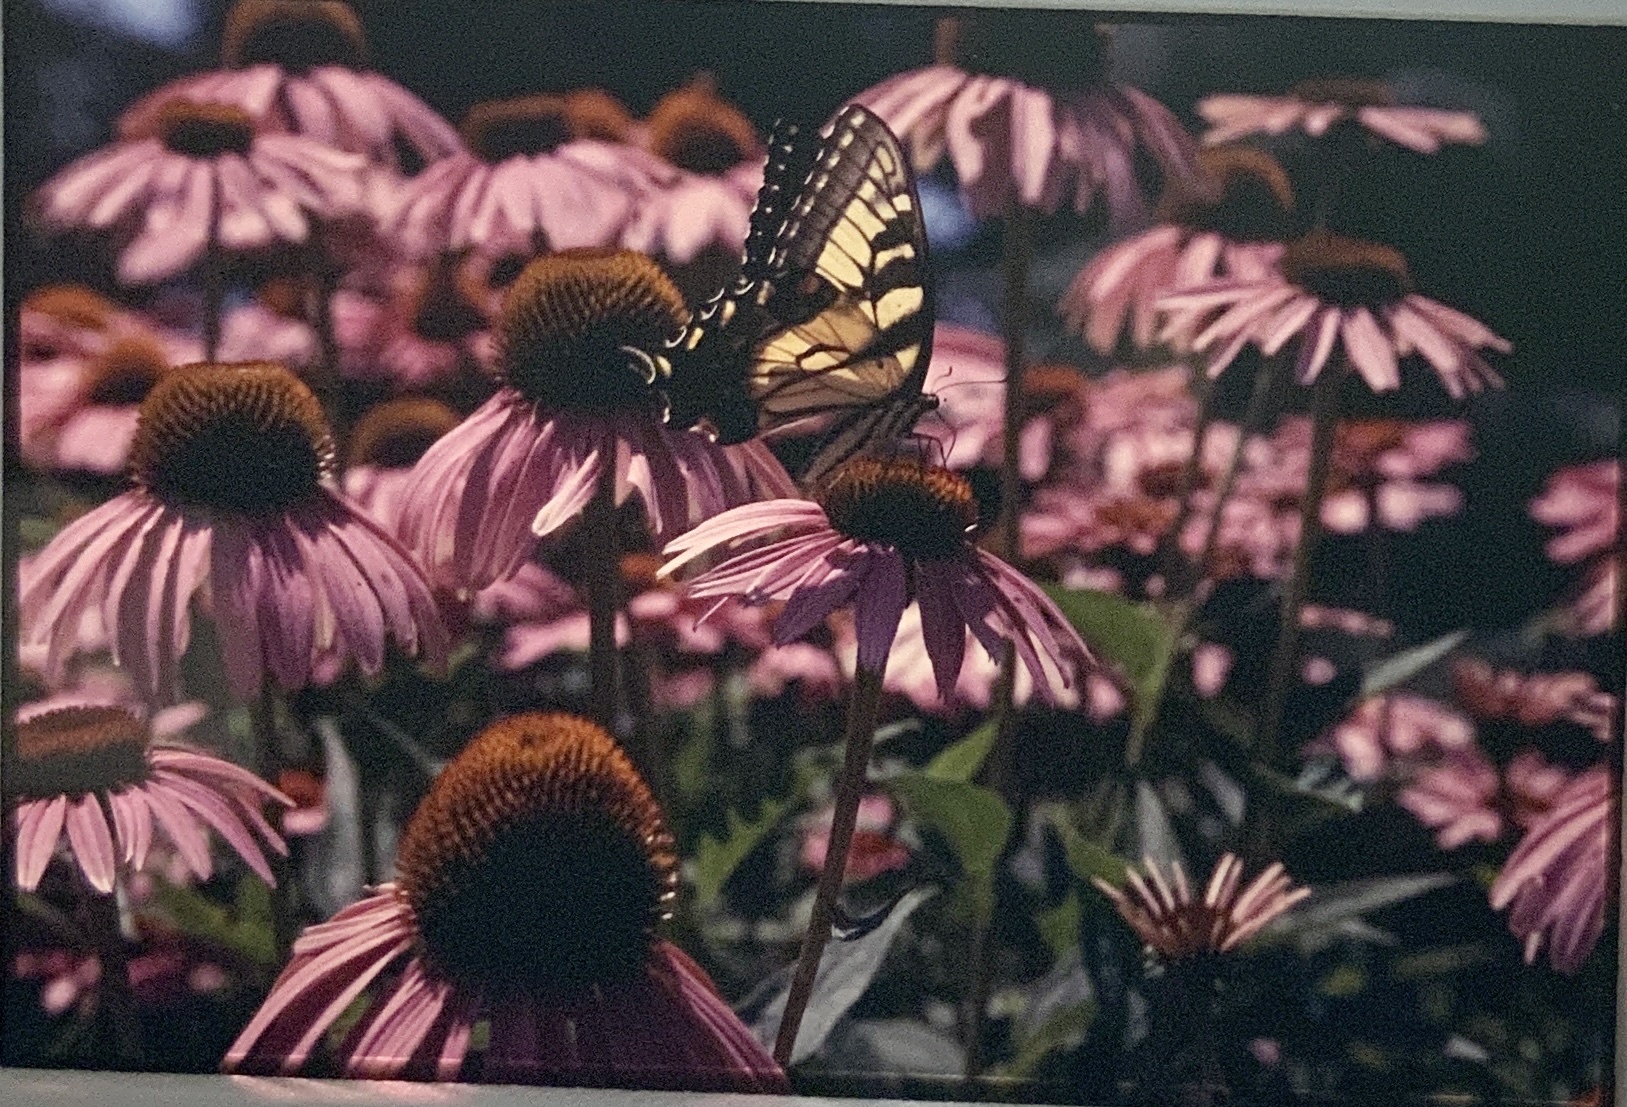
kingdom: Animalia
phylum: Arthropoda
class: Insecta
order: Lepidoptera
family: Papilionidae
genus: Papilio
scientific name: Papilio glaucus
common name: Tiger swallowtail
